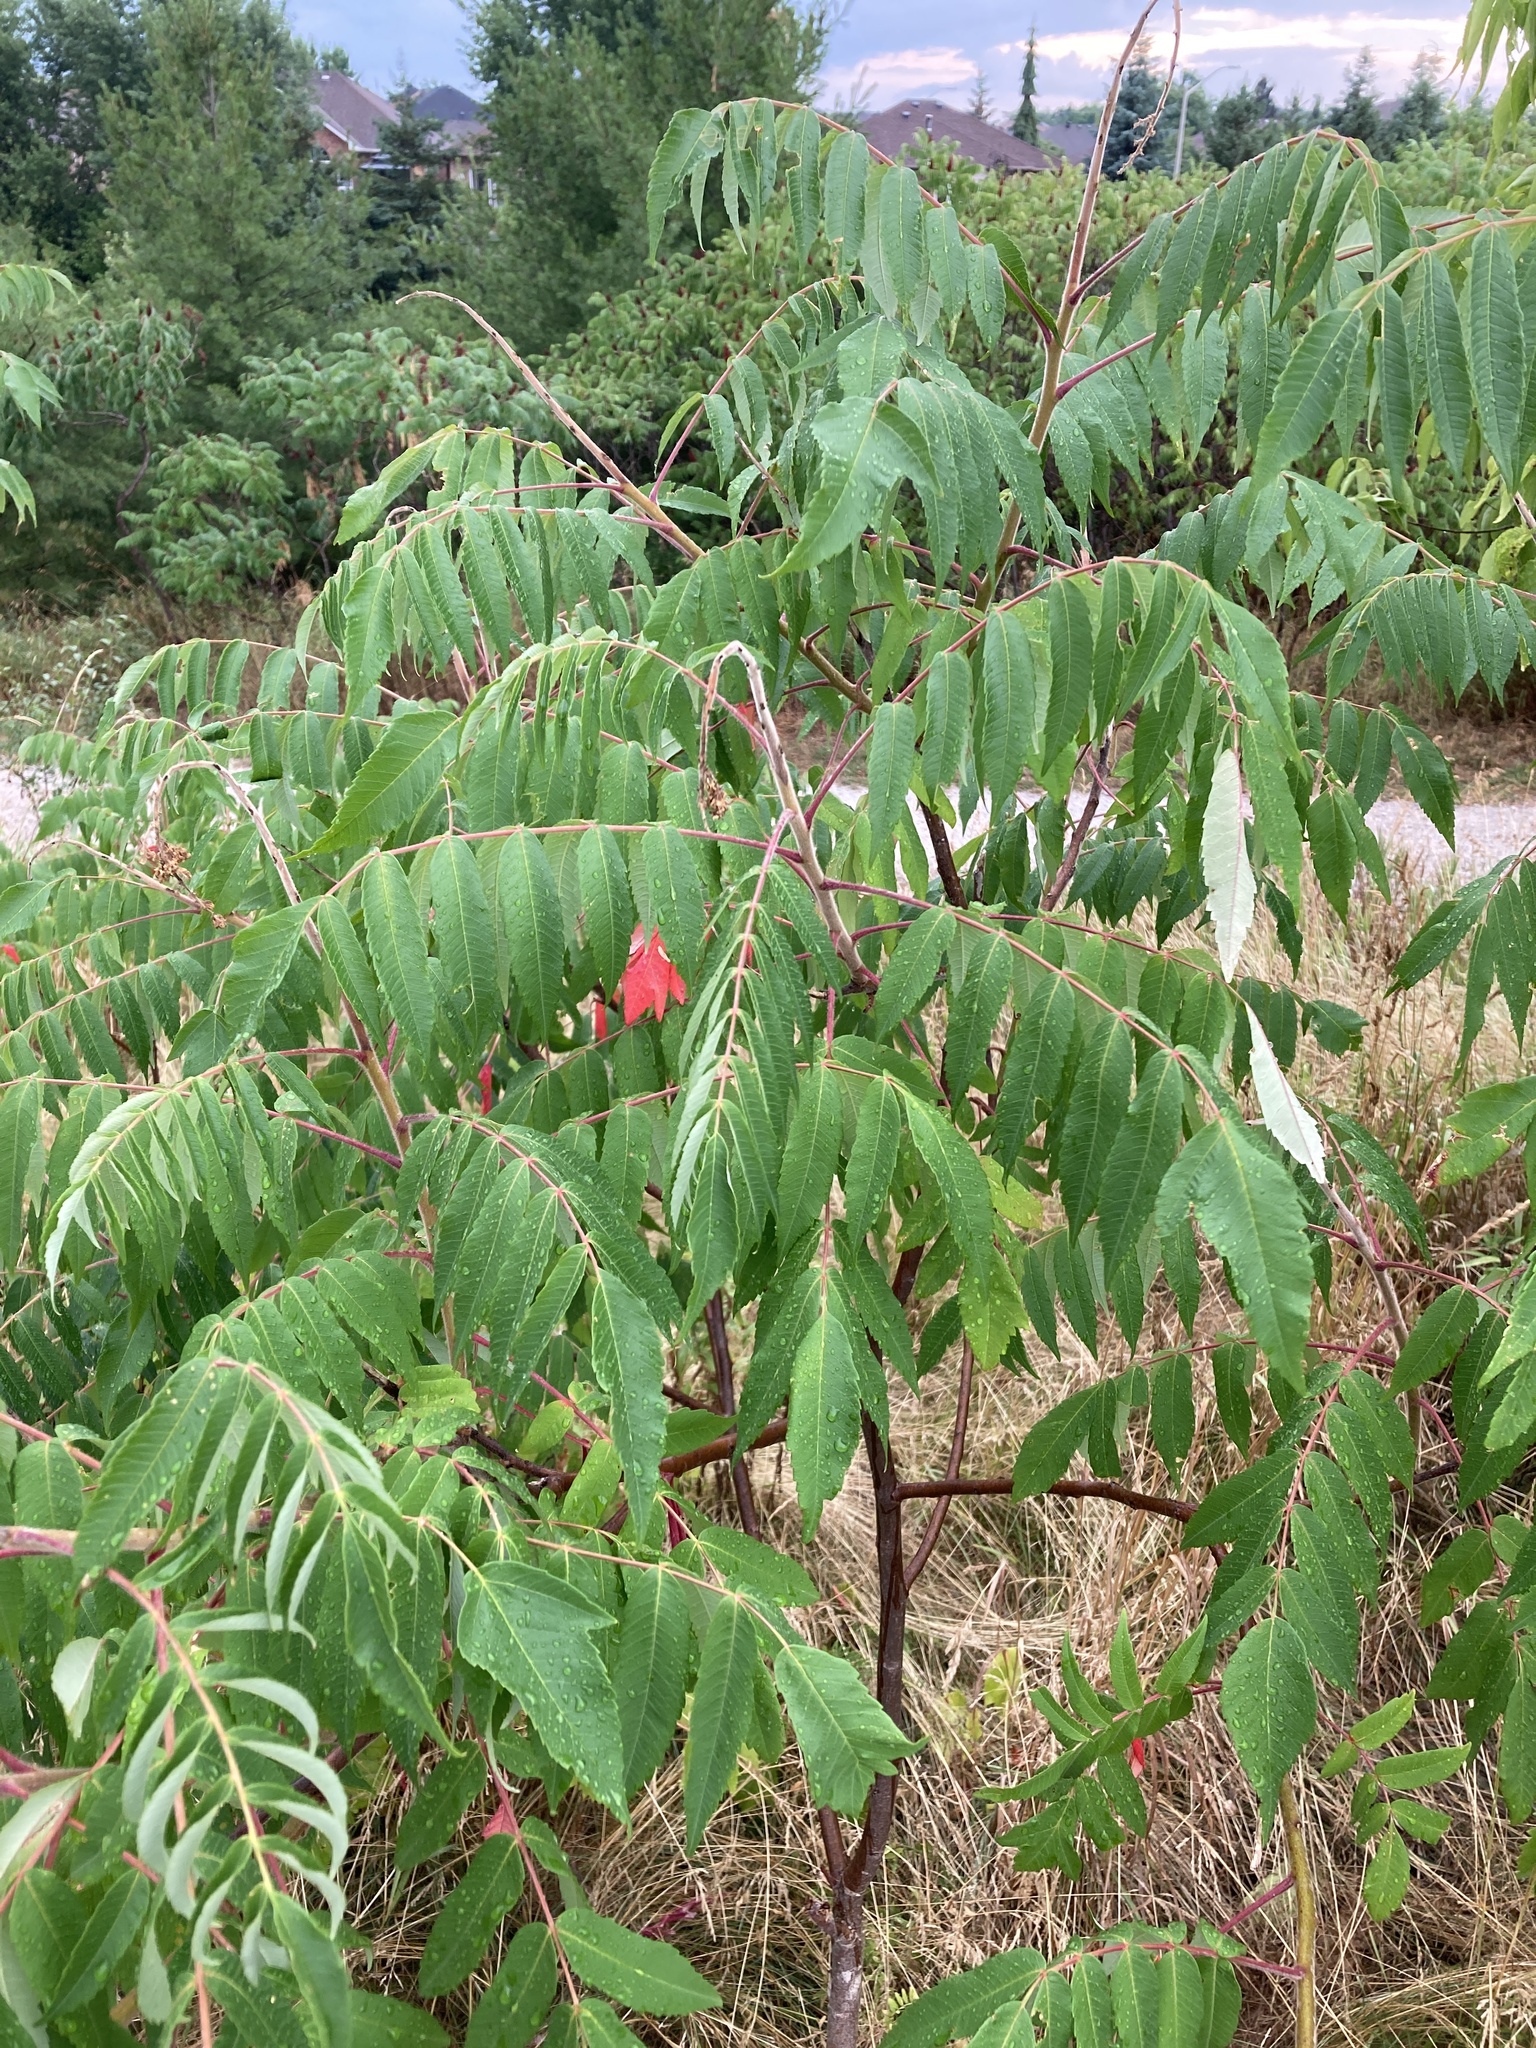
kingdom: Plantae
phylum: Tracheophyta
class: Magnoliopsida
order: Sapindales
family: Anacardiaceae
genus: Rhus
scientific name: Rhus typhina
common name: Staghorn sumac
